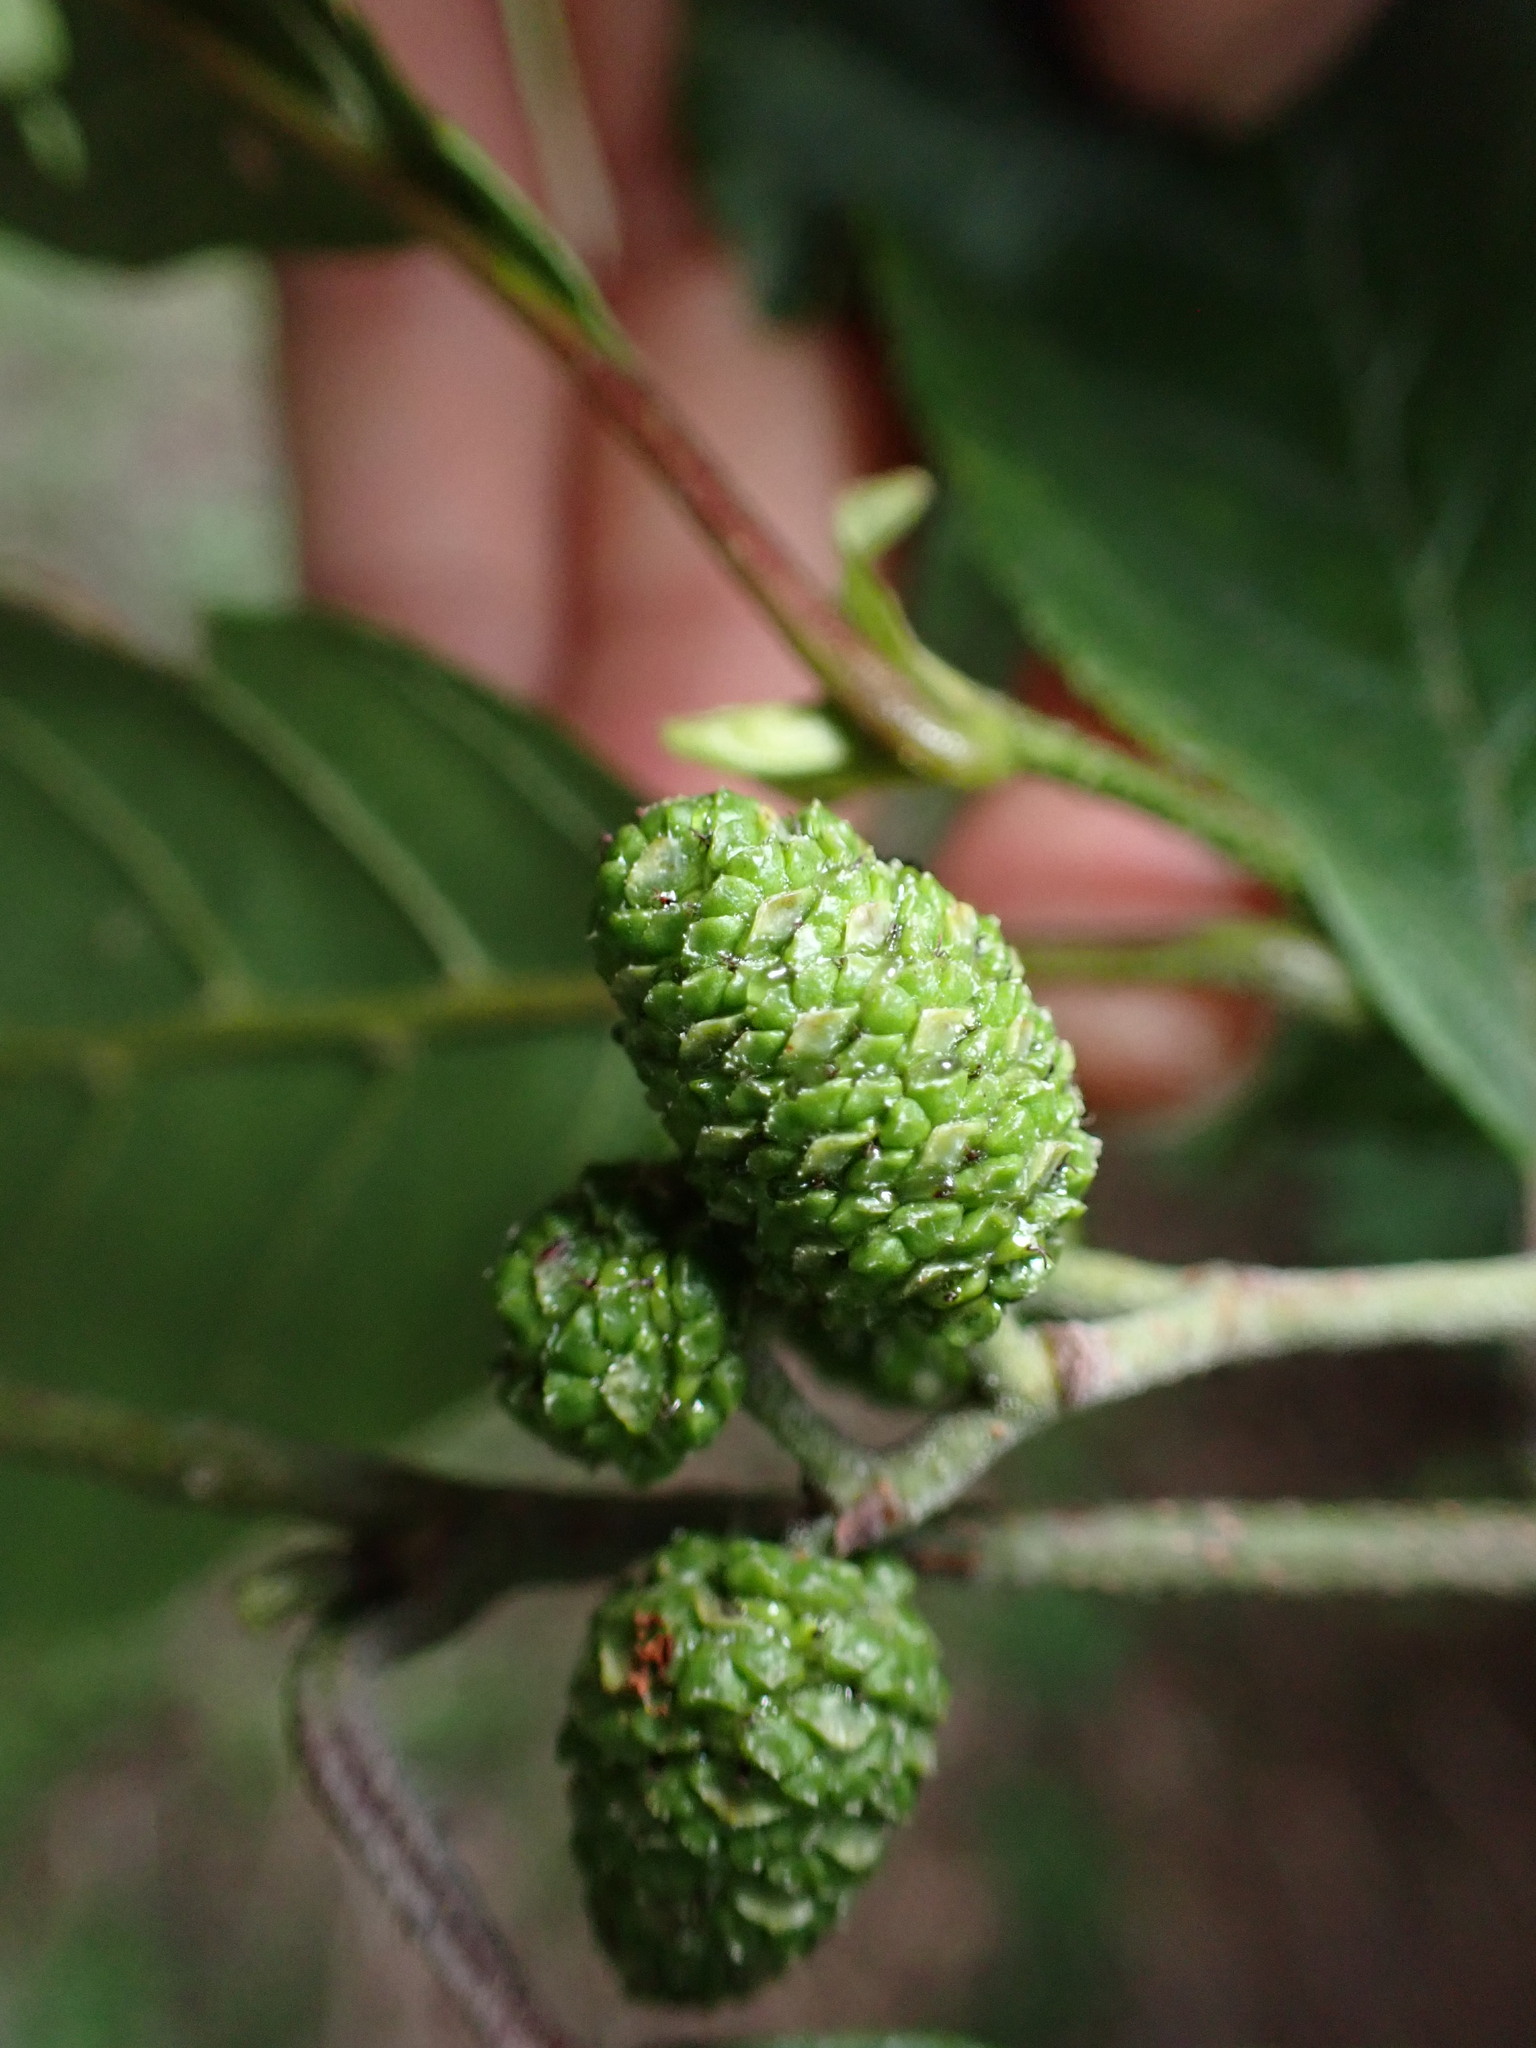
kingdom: Plantae
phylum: Tracheophyta
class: Magnoliopsida
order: Fagales
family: Betulaceae
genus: Alnus
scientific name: Alnus serrulata
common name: Hazel alder
